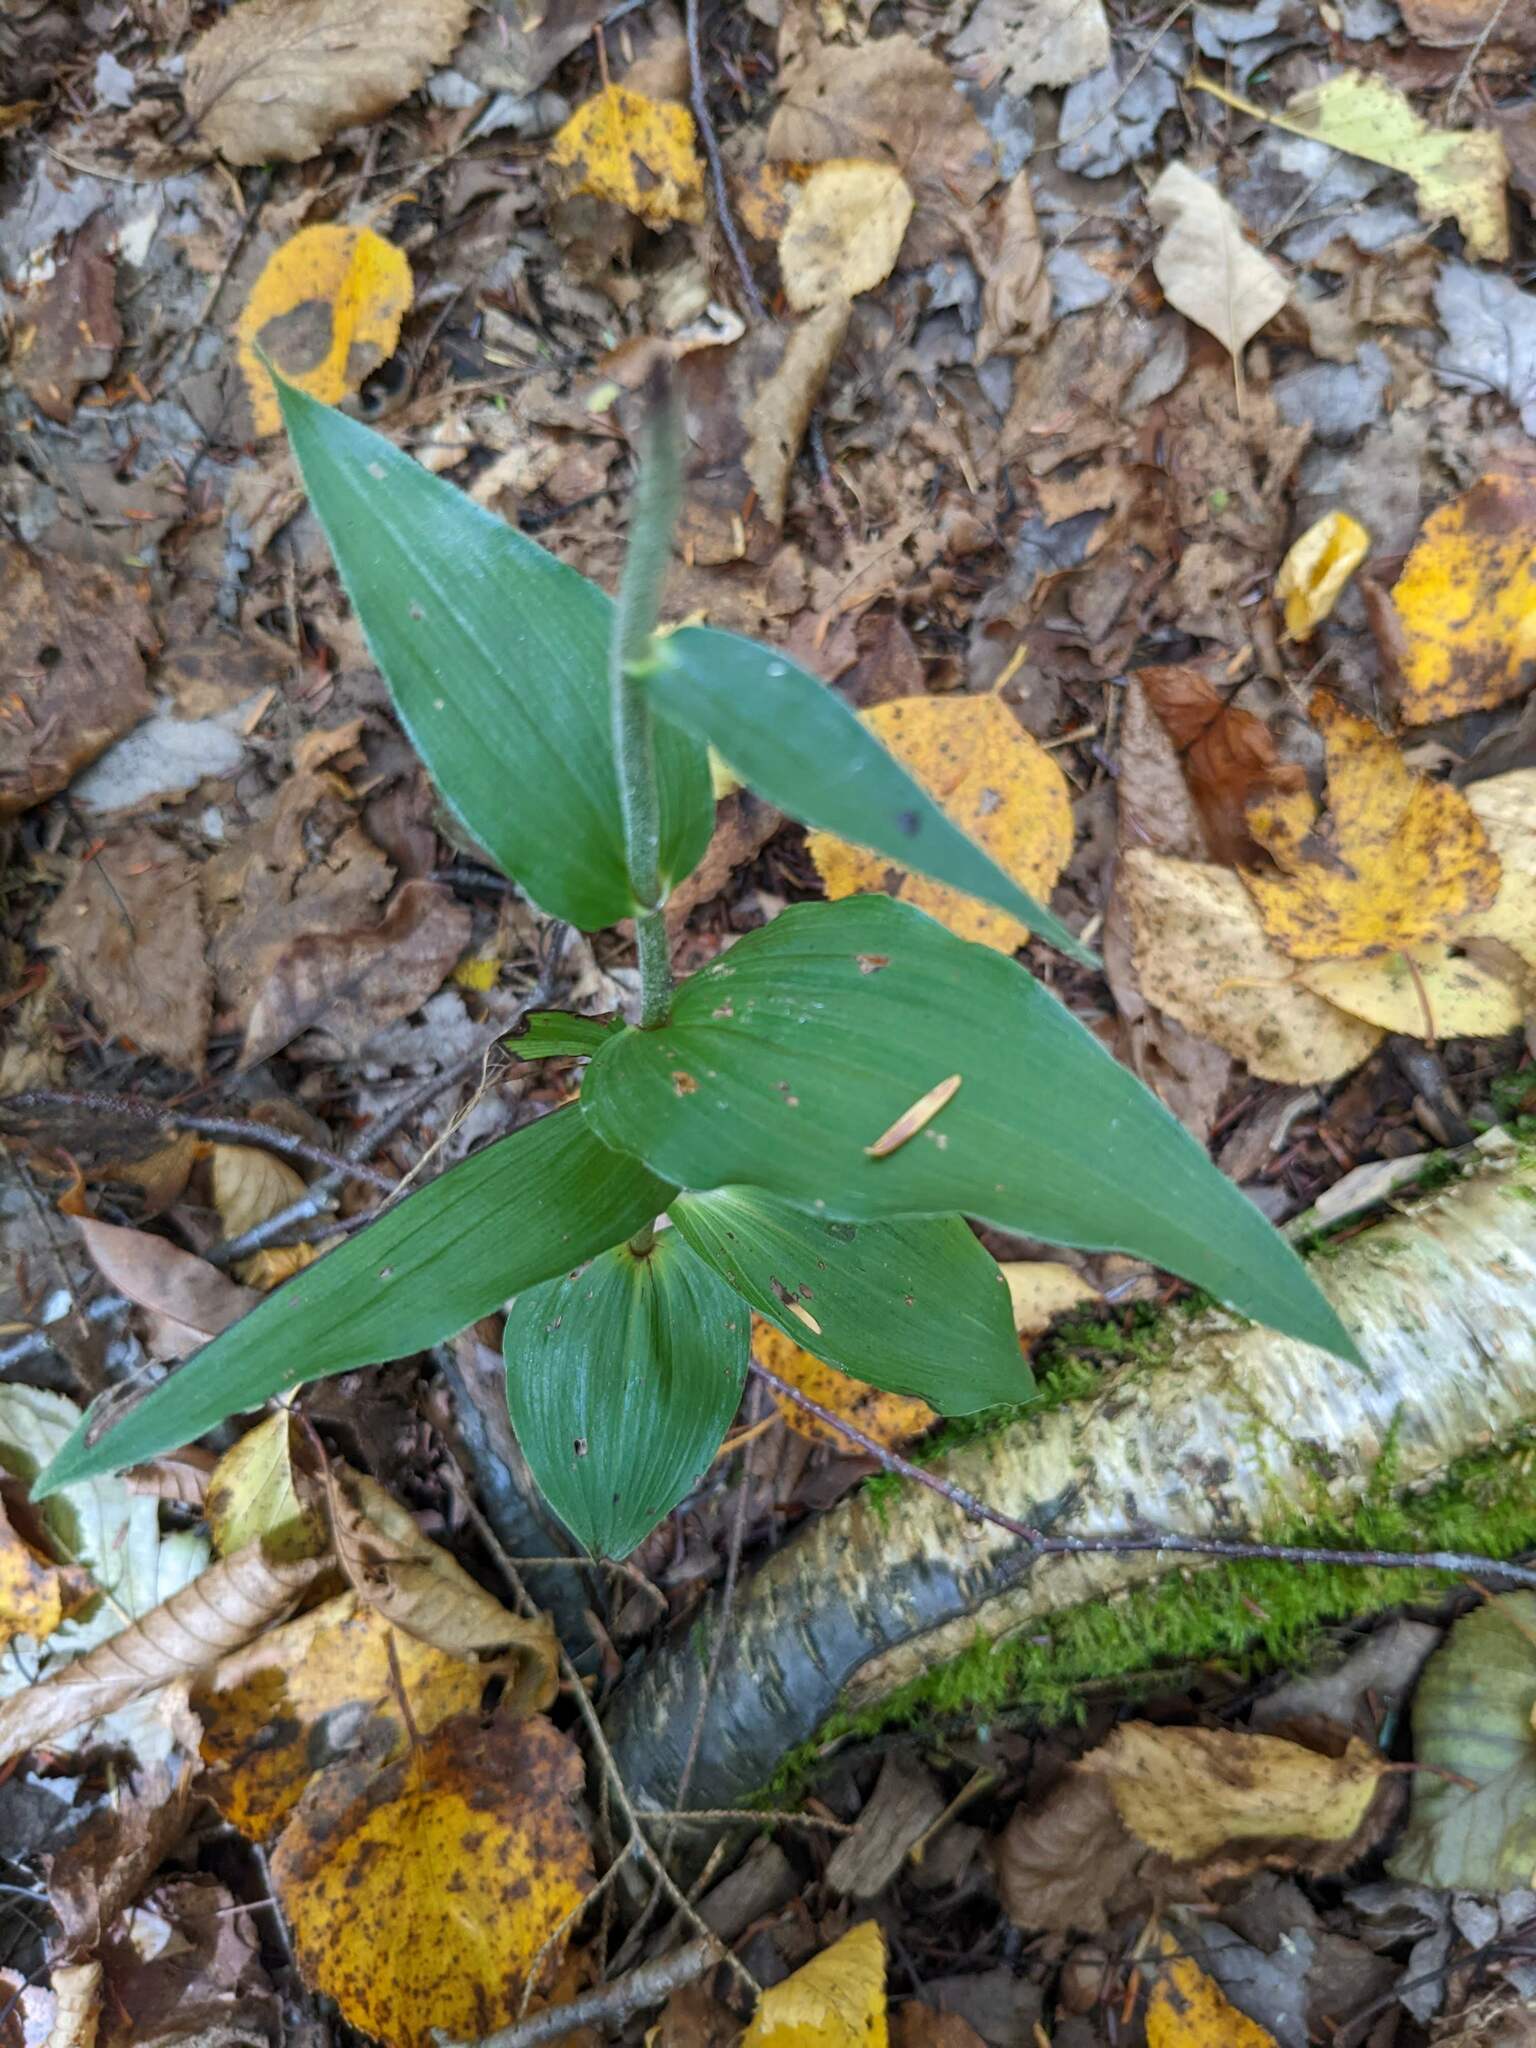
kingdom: Plantae
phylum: Tracheophyta
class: Liliopsida
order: Asparagales
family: Orchidaceae
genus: Epipactis
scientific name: Epipactis helleborine
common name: Broad-leaved helleborine
